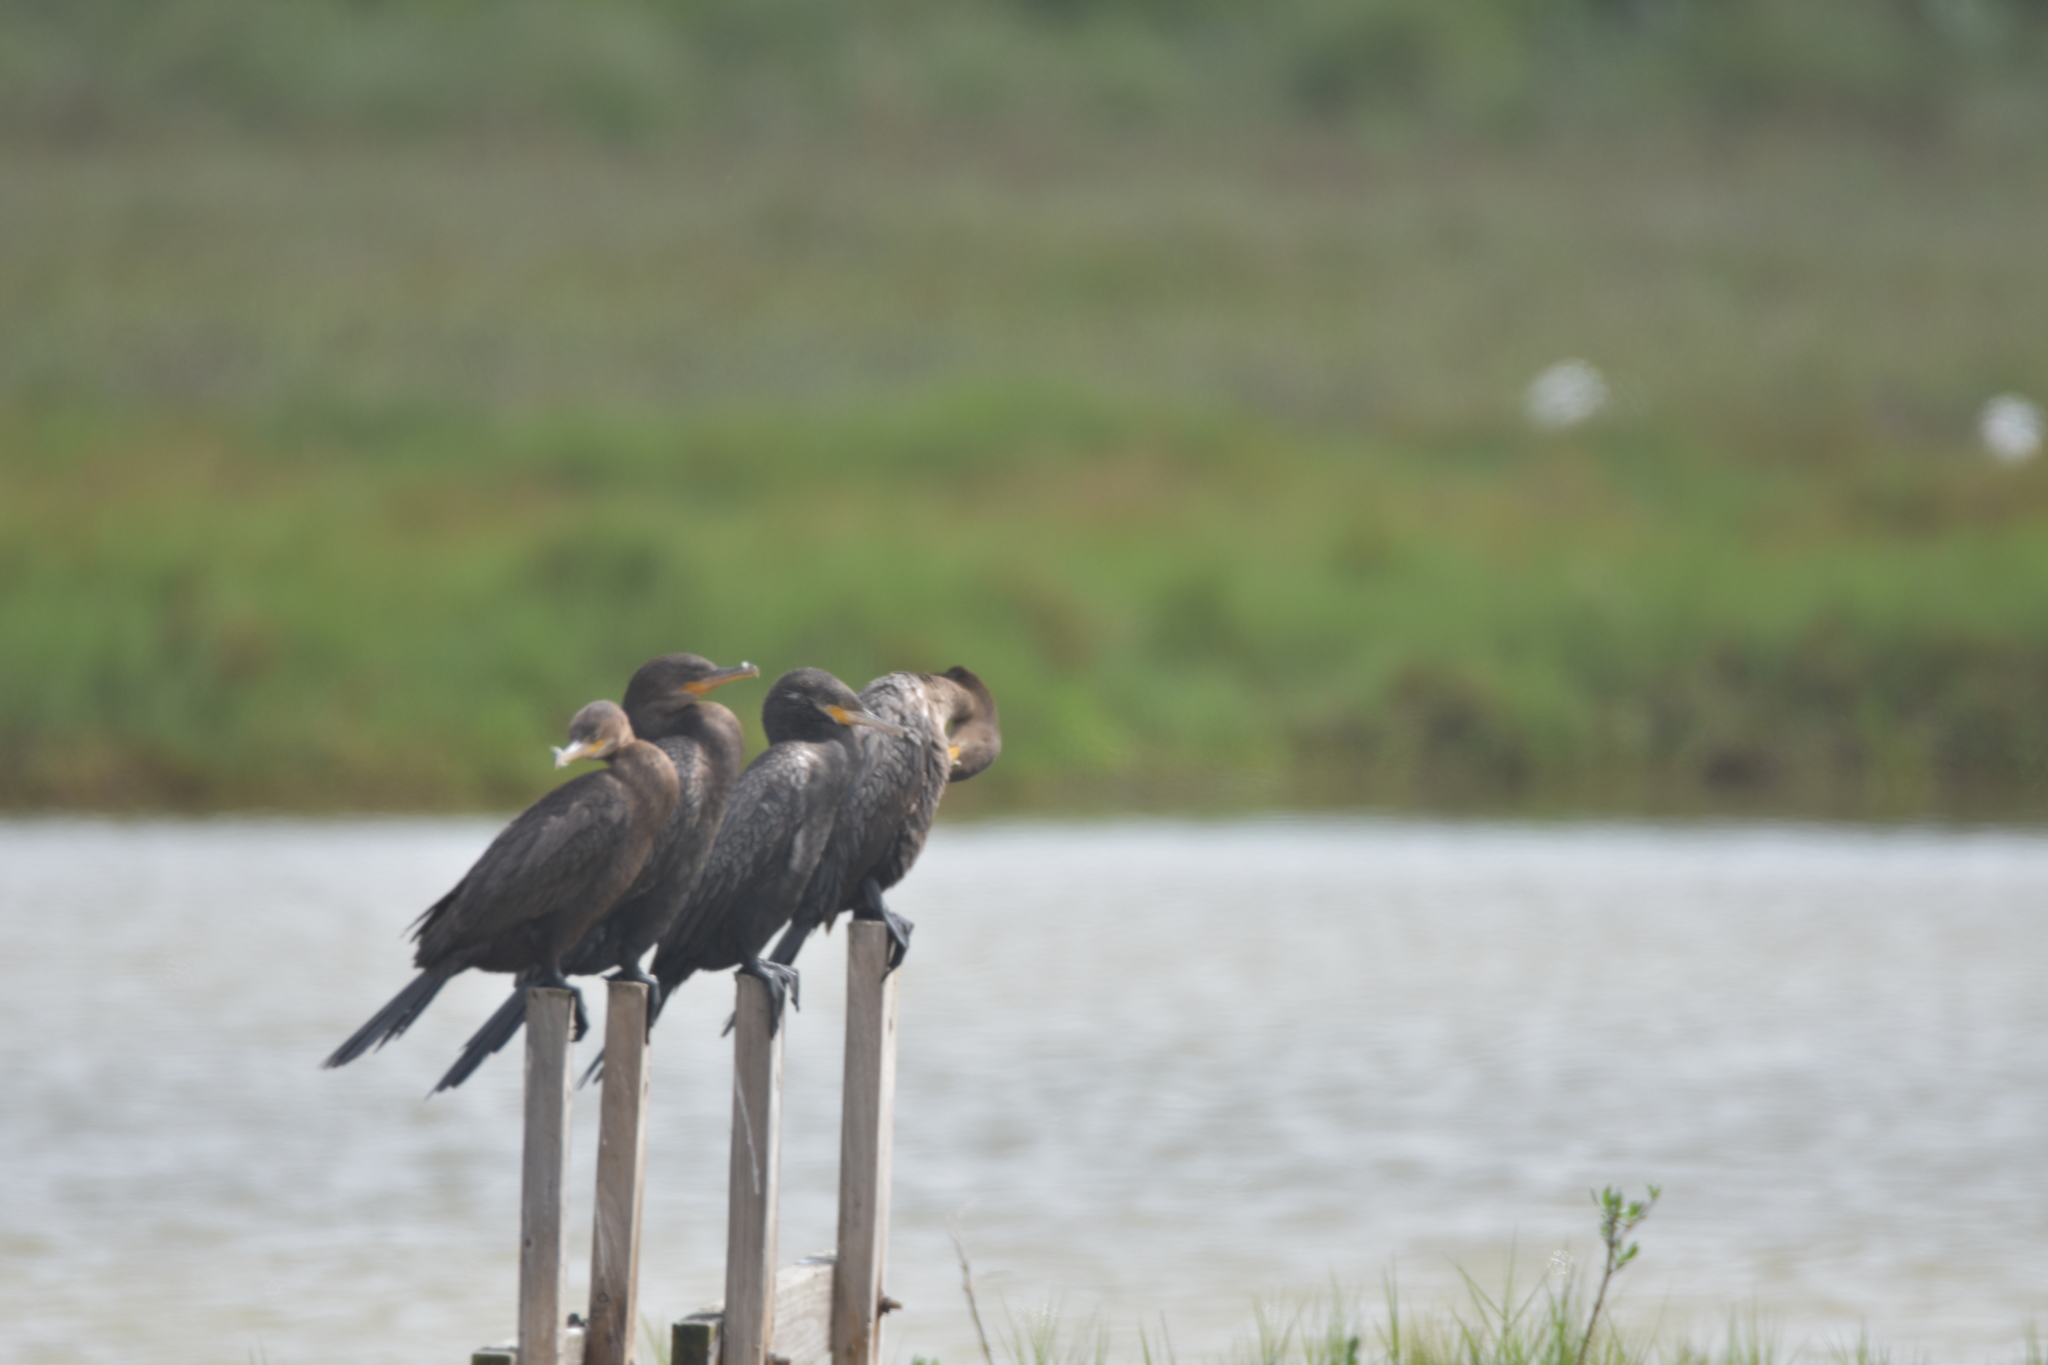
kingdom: Animalia
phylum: Chordata
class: Aves
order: Suliformes
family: Phalacrocoracidae
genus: Phalacrocorax
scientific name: Phalacrocorax brasilianus
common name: Neotropic cormorant
